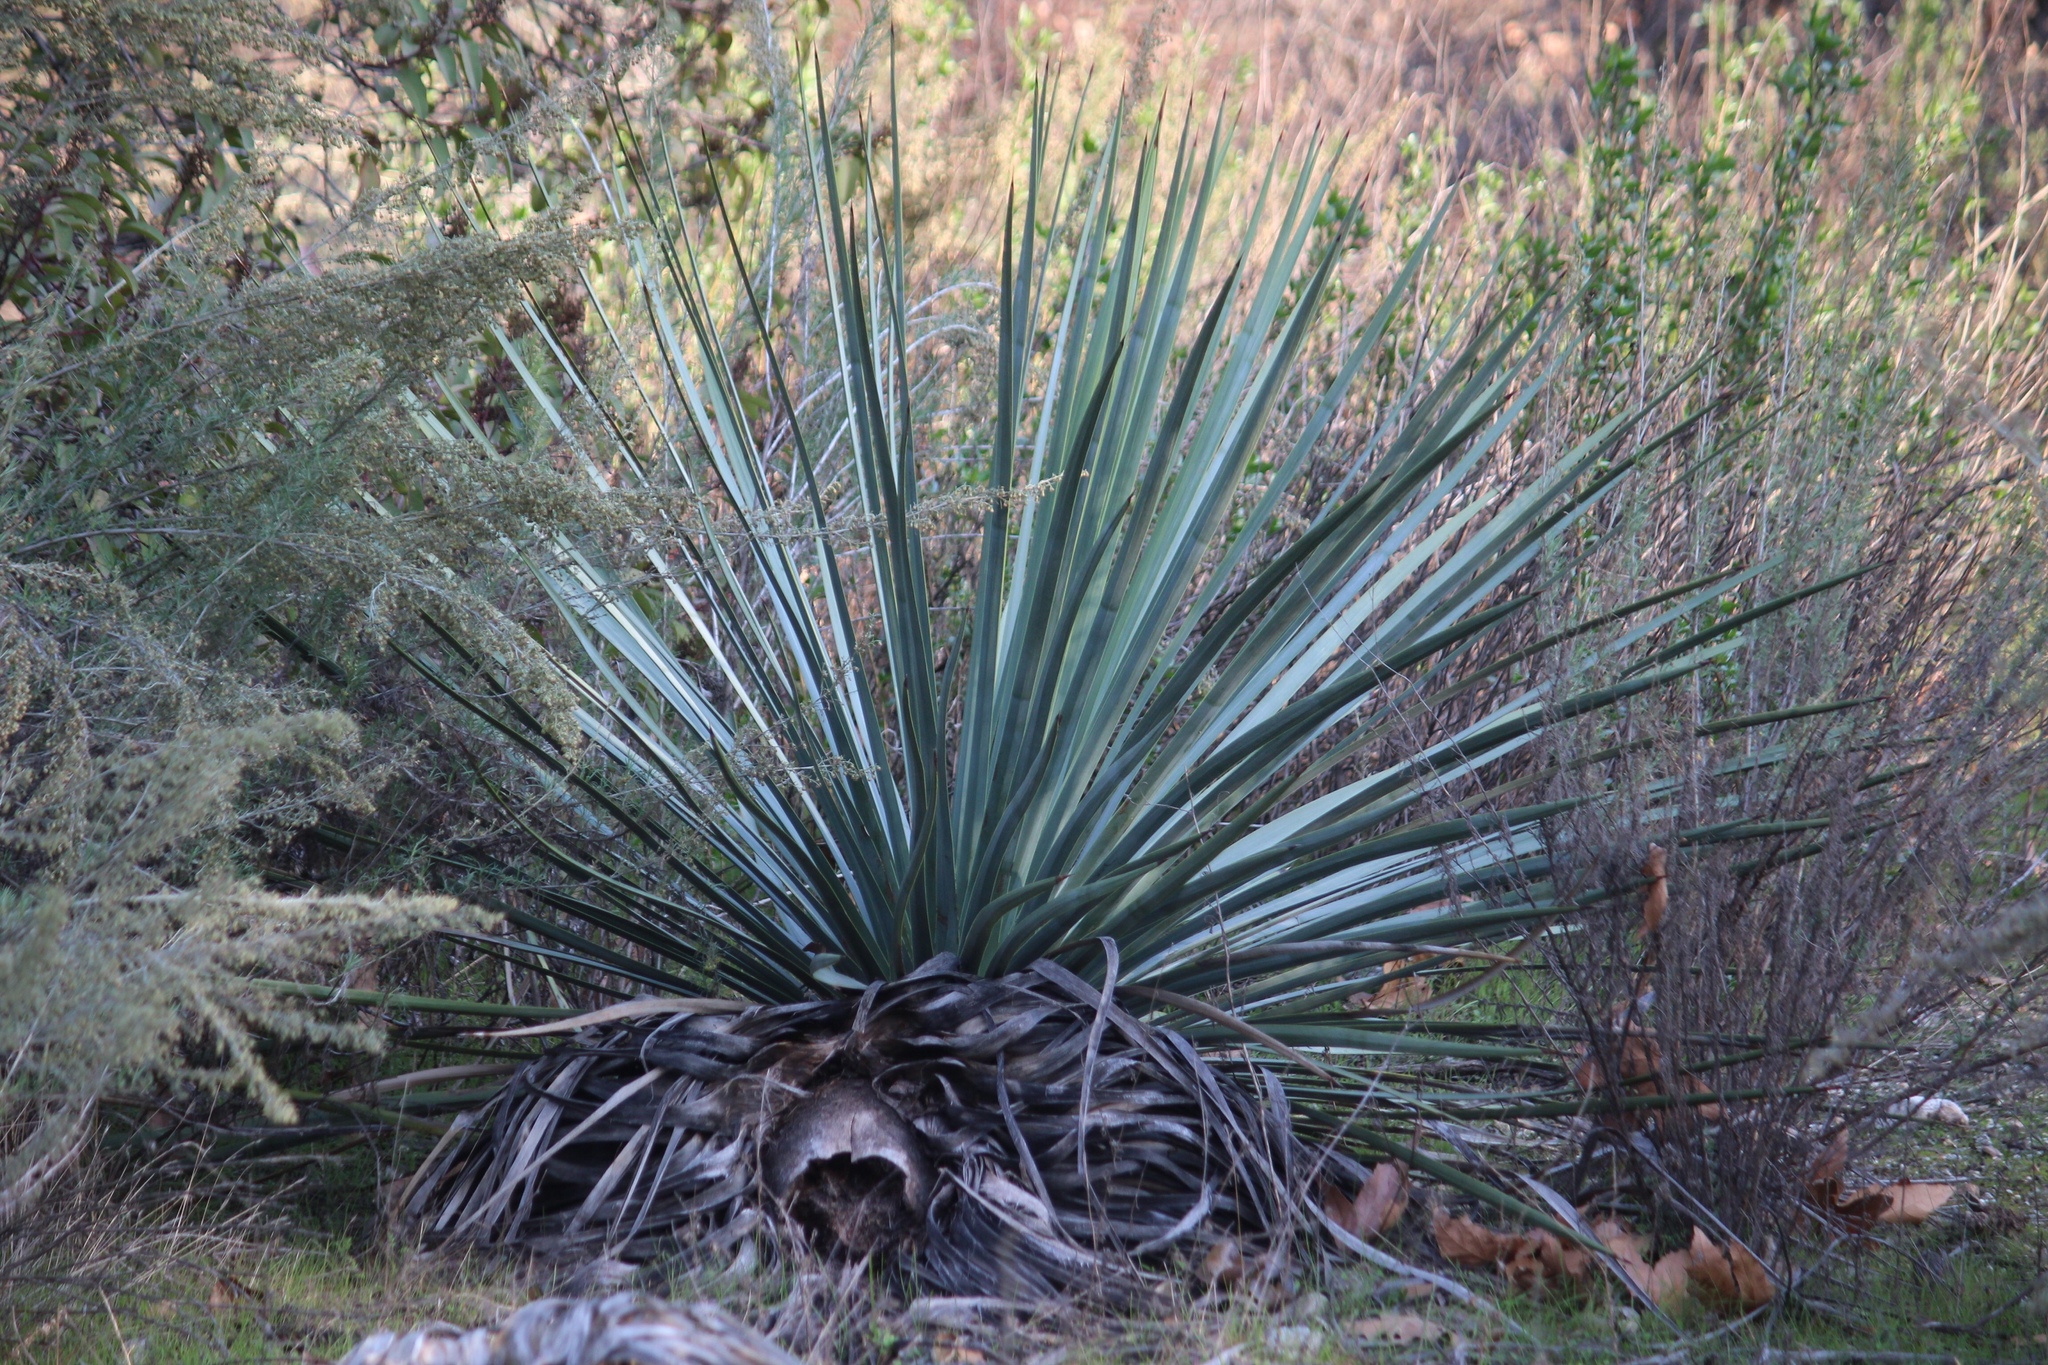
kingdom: Plantae
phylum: Tracheophyta
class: Liliopsida
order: Asparagales
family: Asparagaceae
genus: Hesperoyucca
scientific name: Hesperoyucca whipplei
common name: Our lord's-candle
